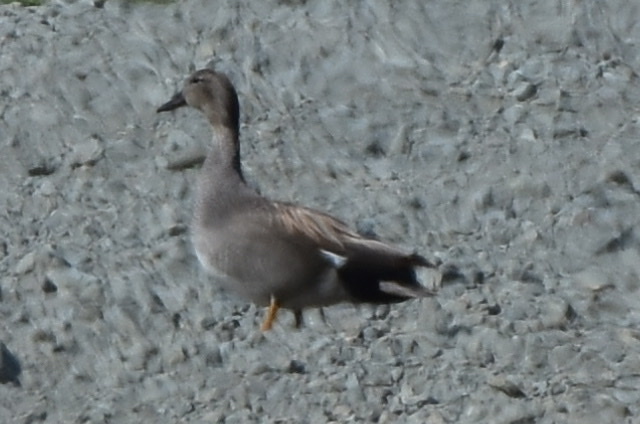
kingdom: Animalia
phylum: Chordata
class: Aves
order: Anseriformes
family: Anatidae
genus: Mareca
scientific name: Mareca strepera
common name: Gadwall
